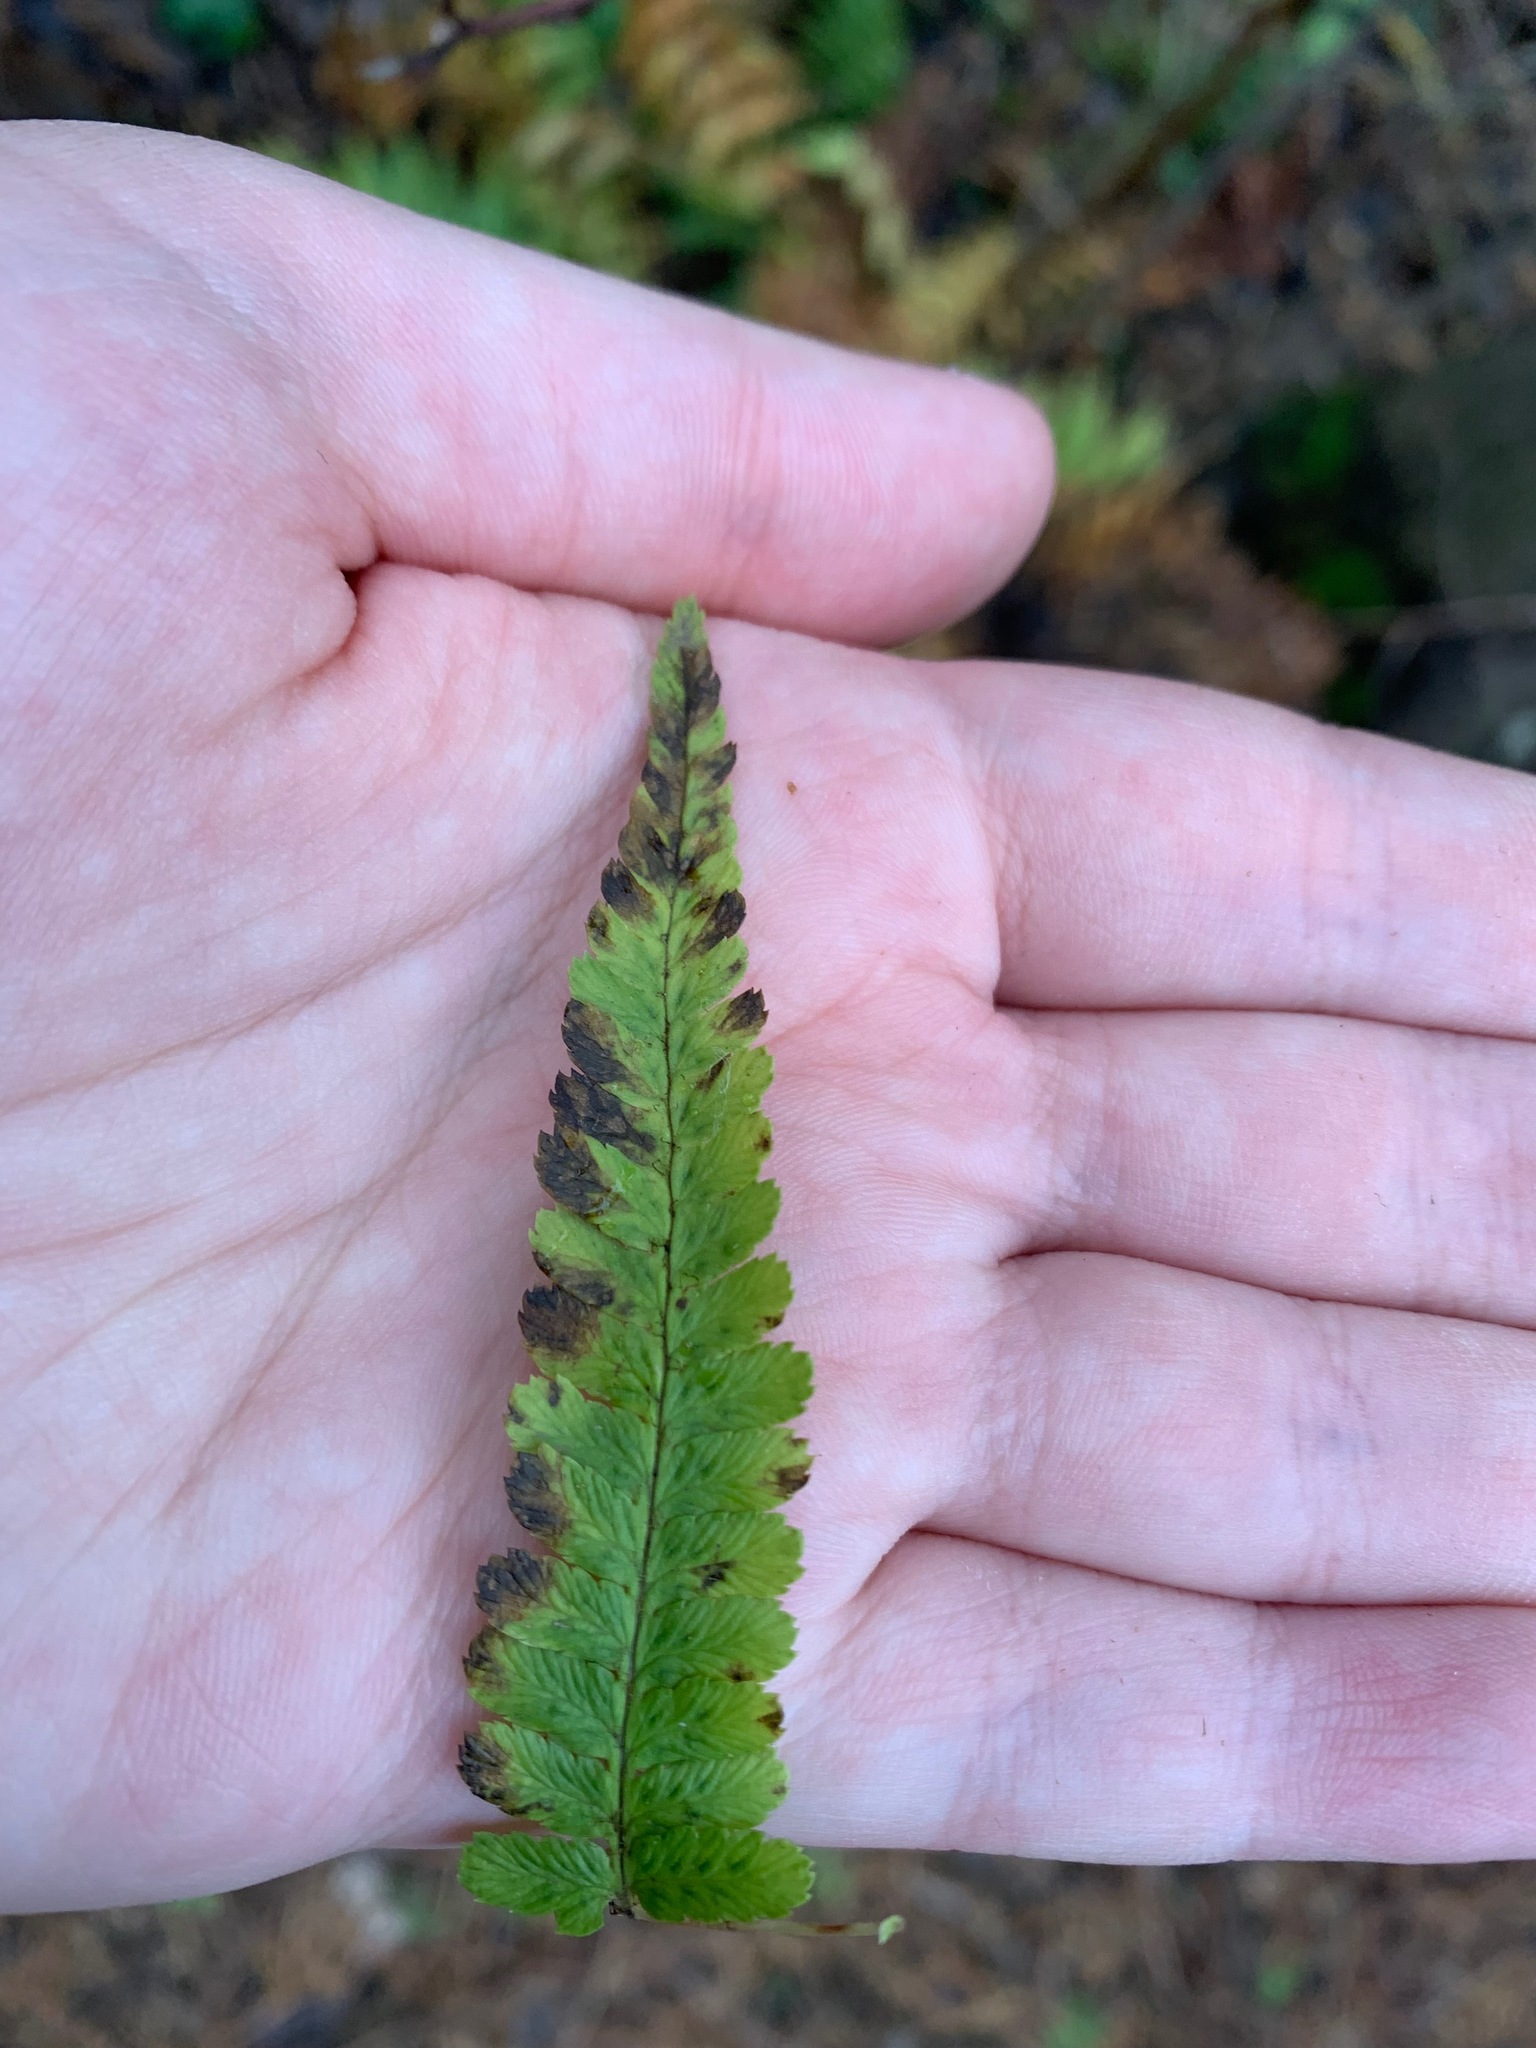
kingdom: Plantae
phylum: Tracheophyta
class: Polypodiopsida
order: Polypodiales
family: Dryopteridaceae
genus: Dryopteris
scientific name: Dryopteris filix-mas
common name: Male fern
